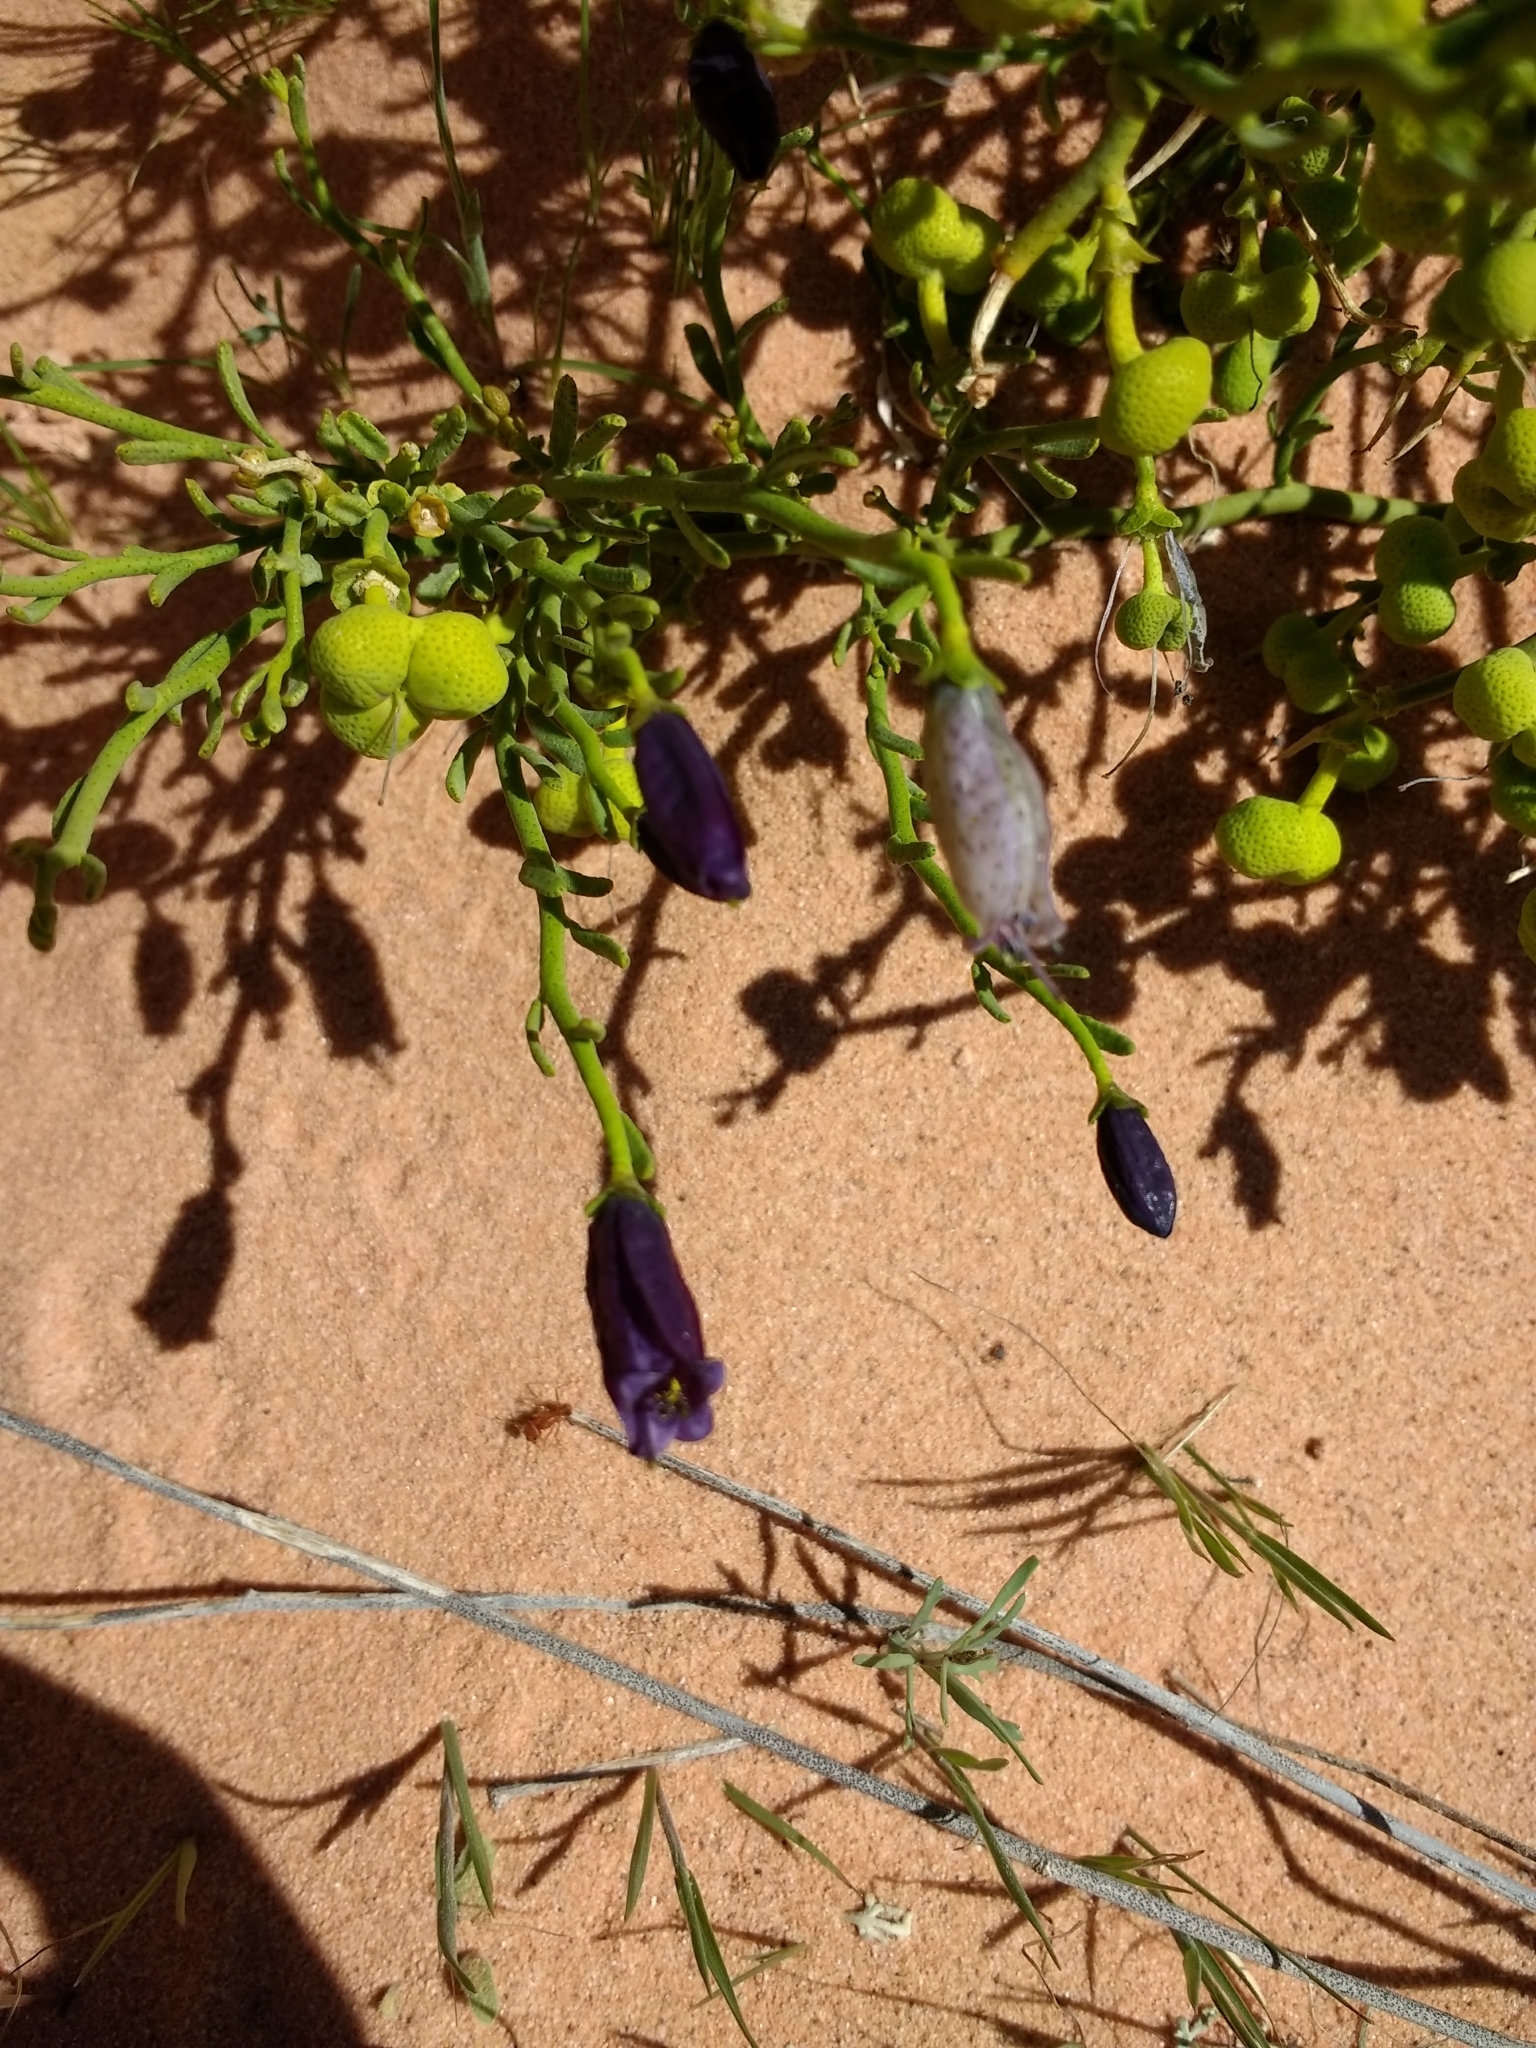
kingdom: Plantae
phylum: Tracheophyta
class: Magnoliopsida
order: Sapindales
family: Rutaceae
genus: Thamnosma
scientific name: Thamnosma montana
